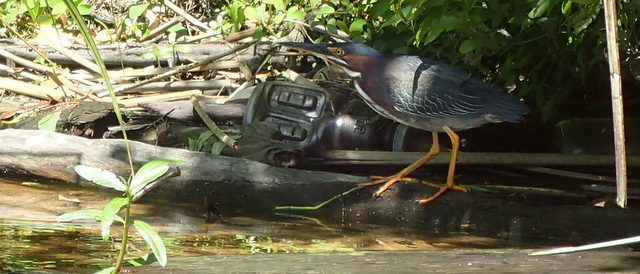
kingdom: Animalia
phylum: Chordata
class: Aves
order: Pelecaniformes
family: Ardeidae
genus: Butorides
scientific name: Butorides virescens
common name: Green heron
